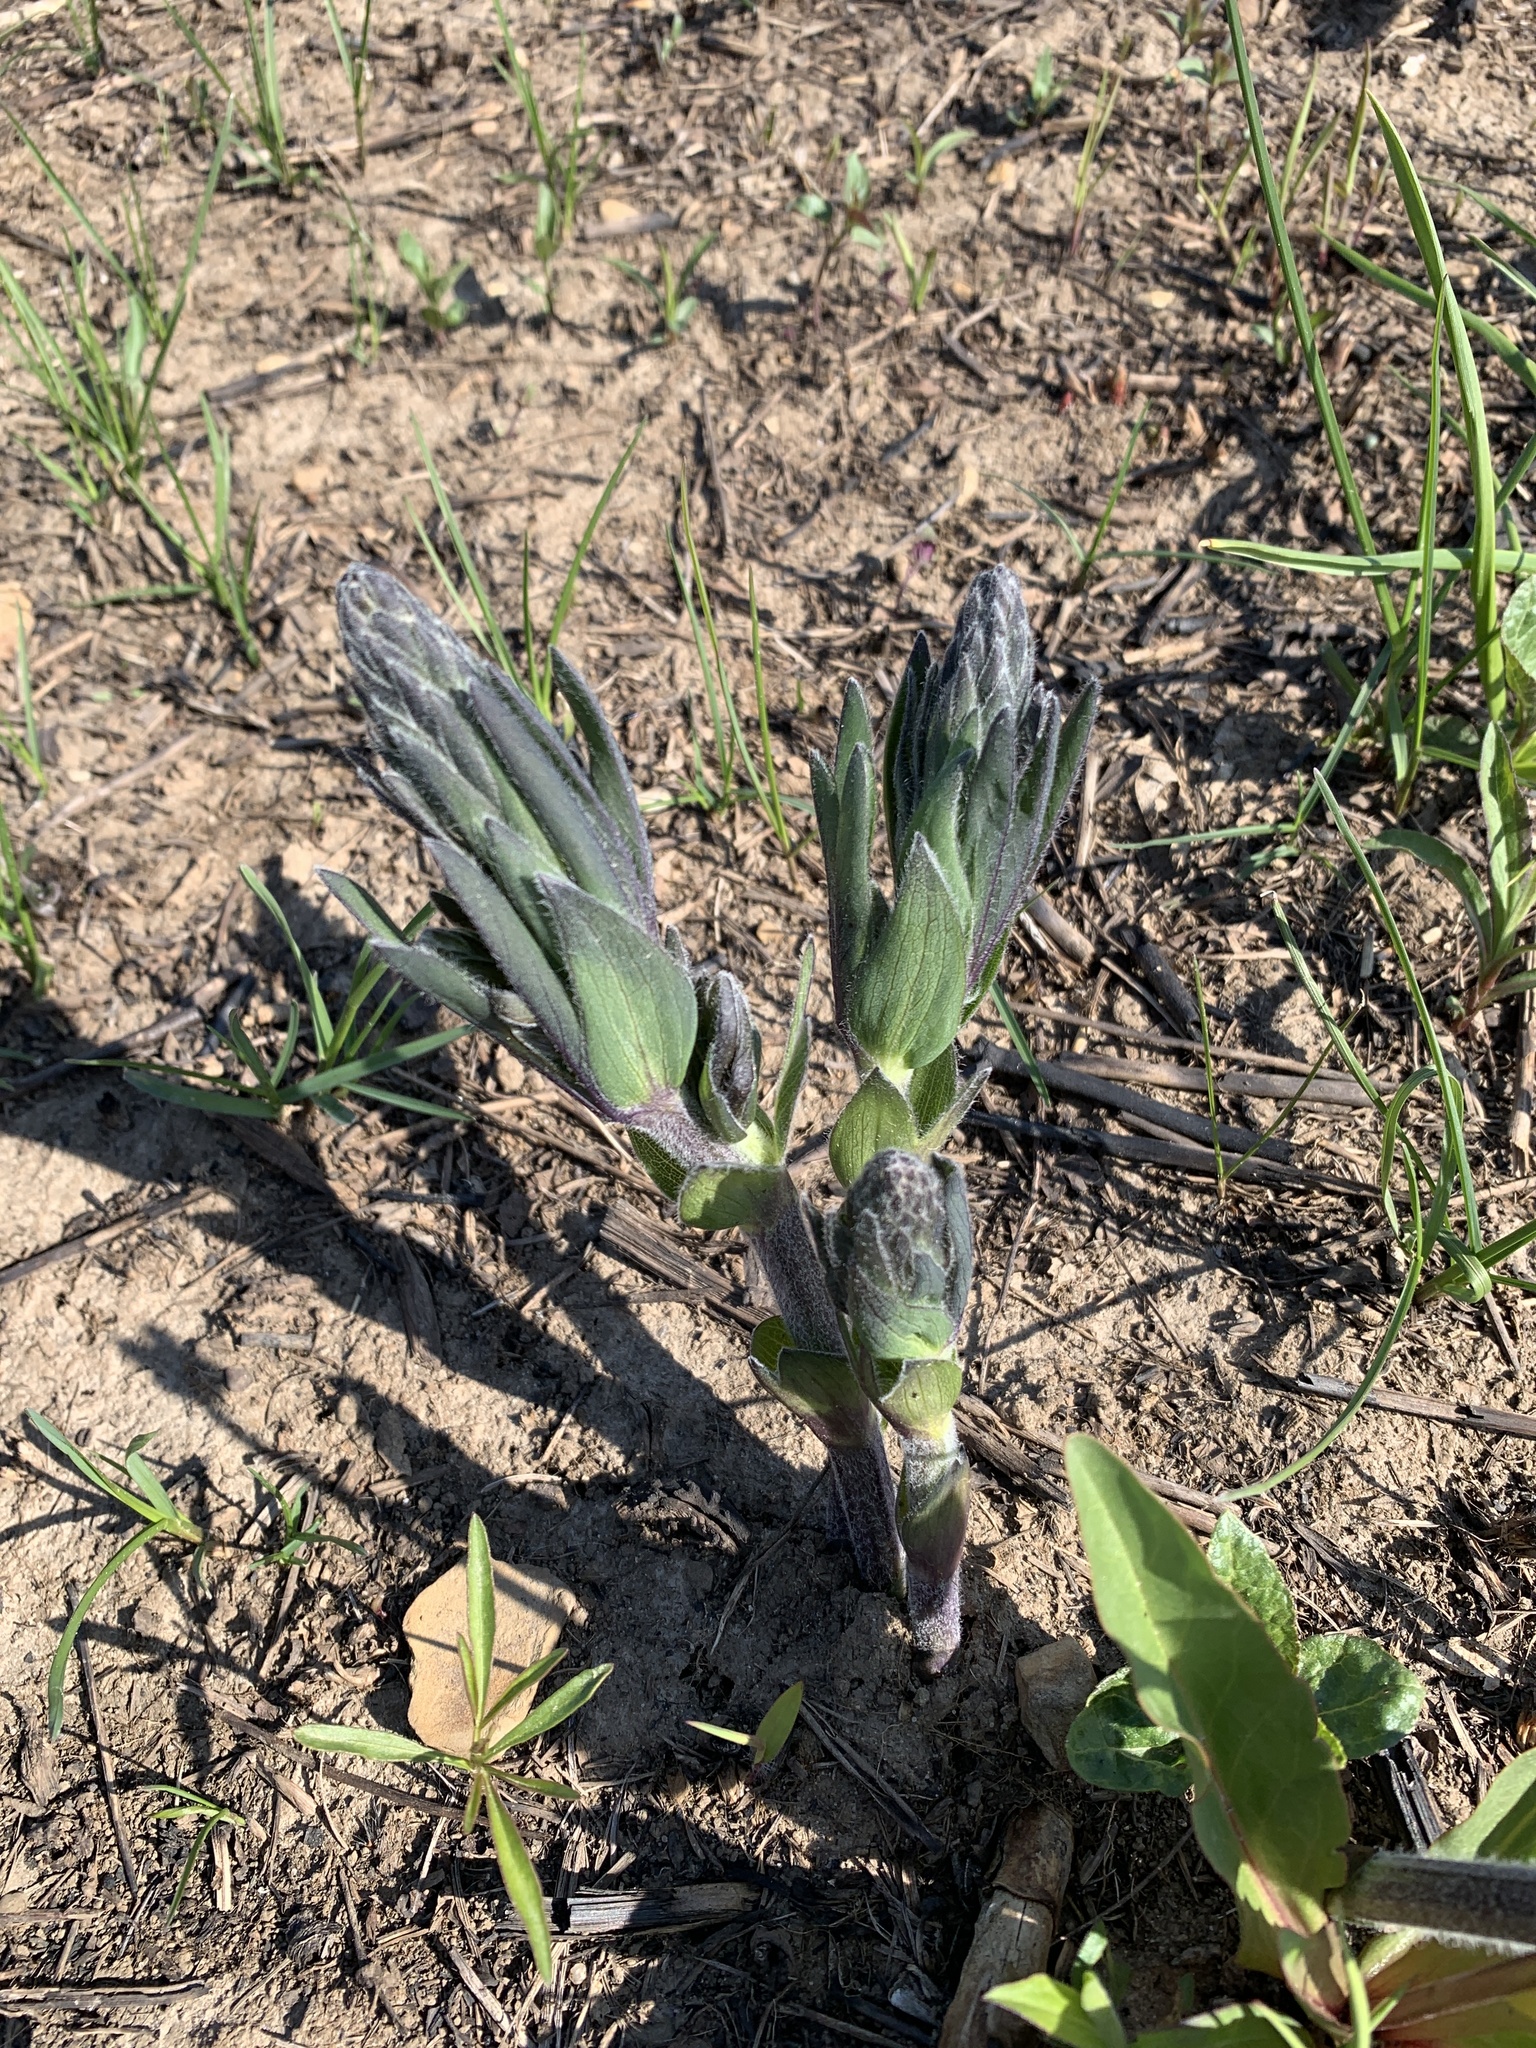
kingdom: Plantae
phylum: Tracheophyta
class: Magnoliopsida
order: Fabales
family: Fabaceae
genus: Baptisia
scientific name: Baptisia bracteata
